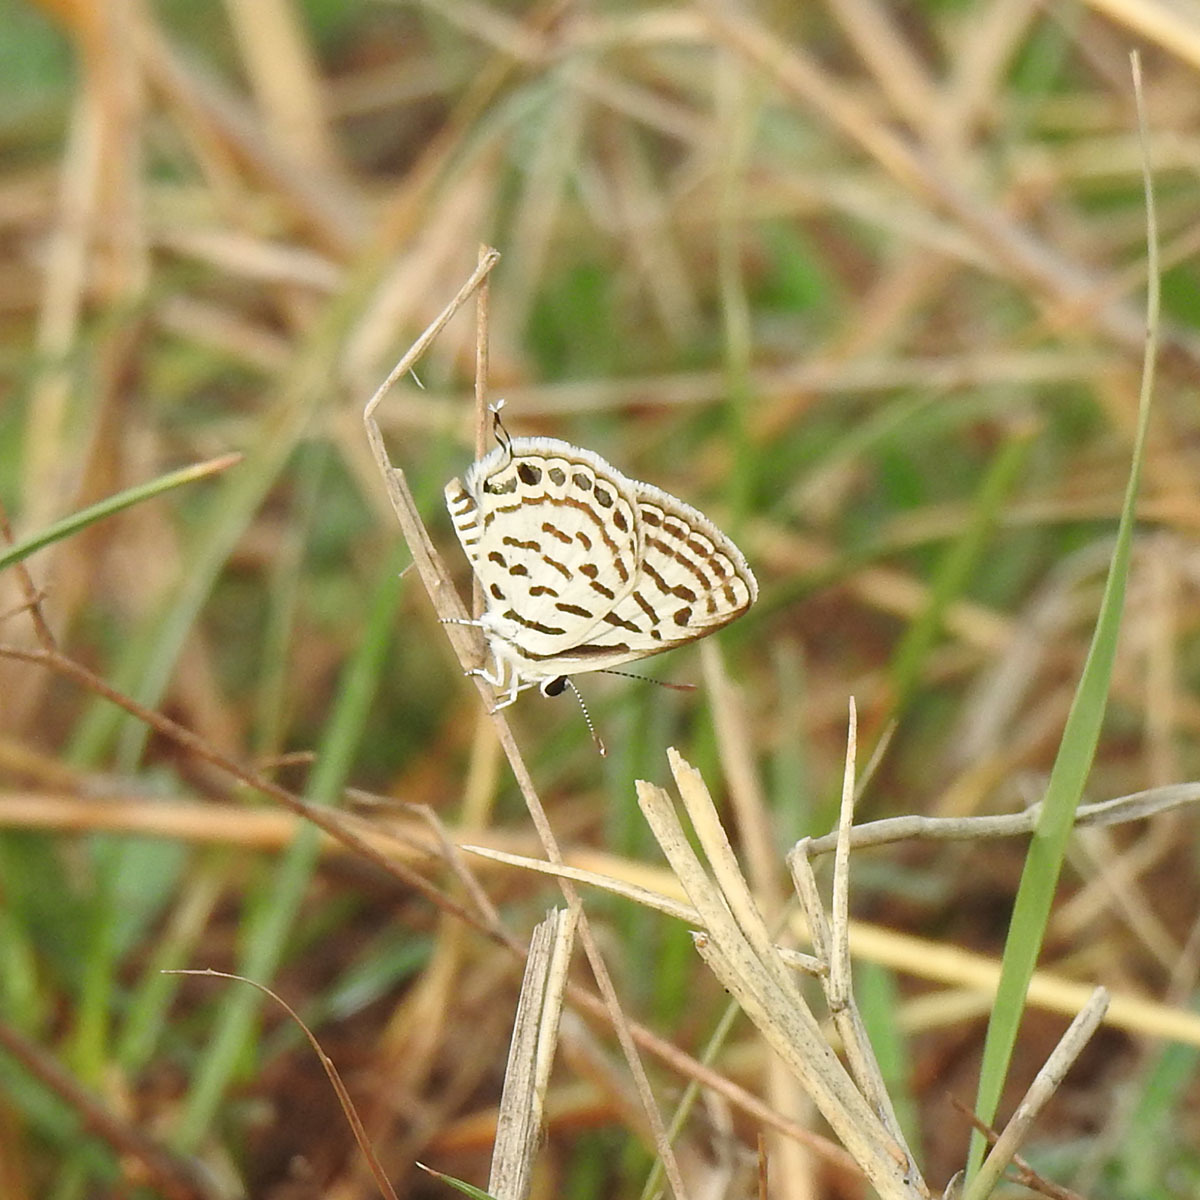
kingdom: Animalia
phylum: Arthropoda
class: Insecta
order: Lepidoptera
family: Lycaenidae
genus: Tarucus
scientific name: Tarucus nara
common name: Striped pierrot
